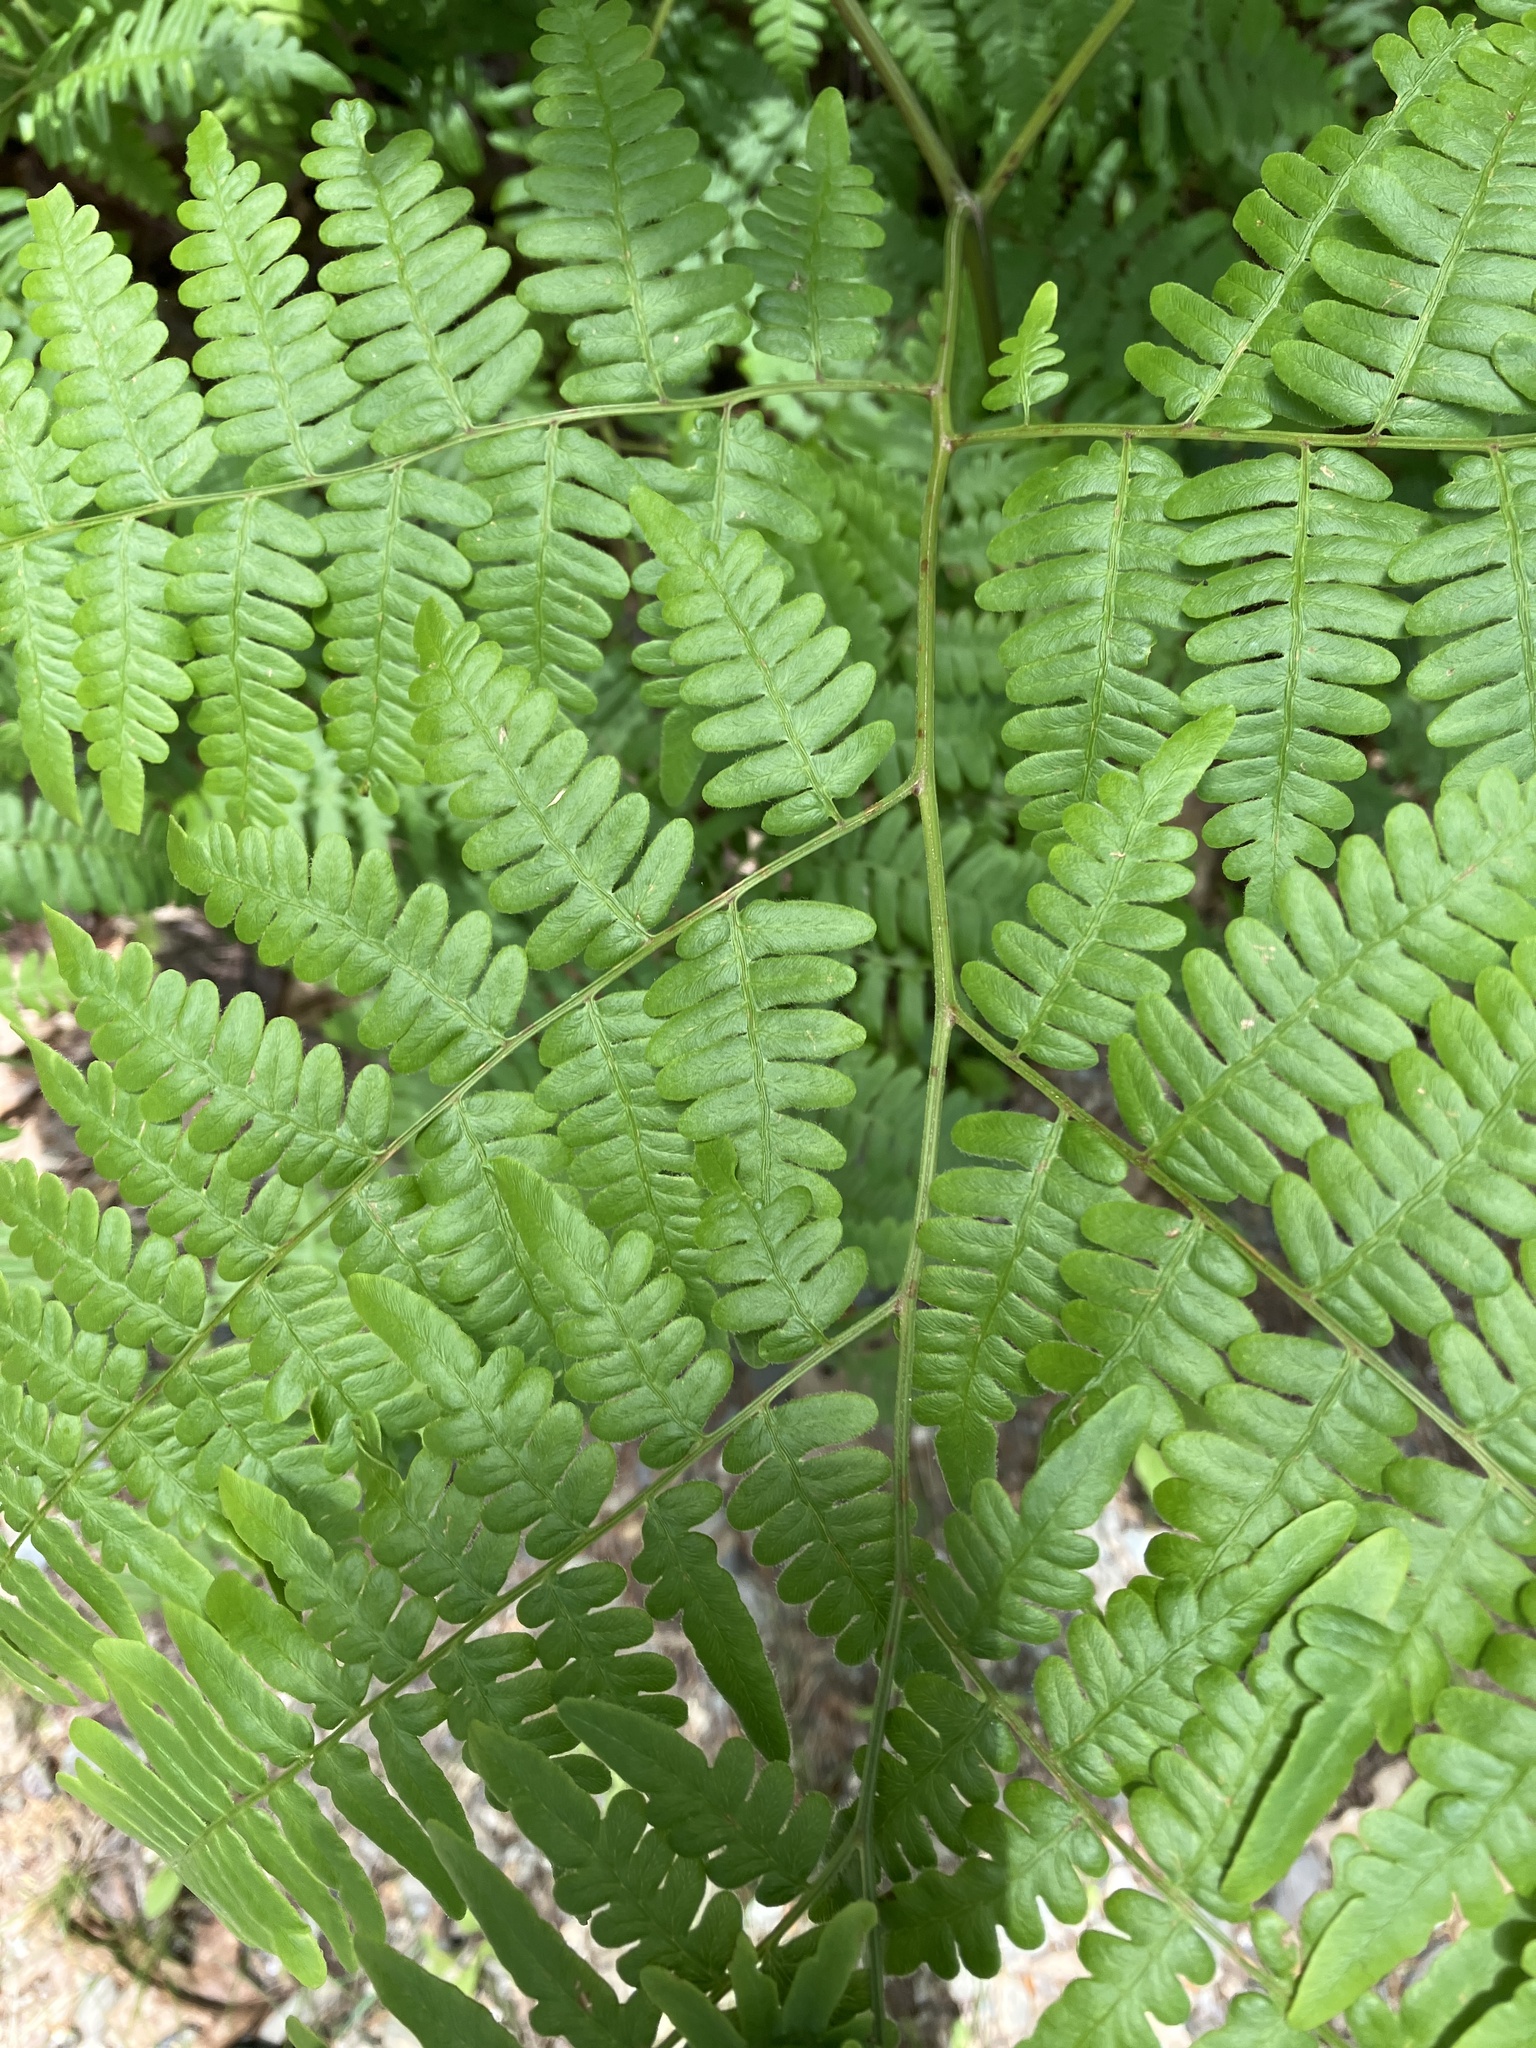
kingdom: Plantae
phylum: Tracheophyta
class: Polypodiopsida
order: Polypodiales
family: Dennstaedtiaceae
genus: Pteridium
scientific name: Pteridium aquilinum
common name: Bracken
